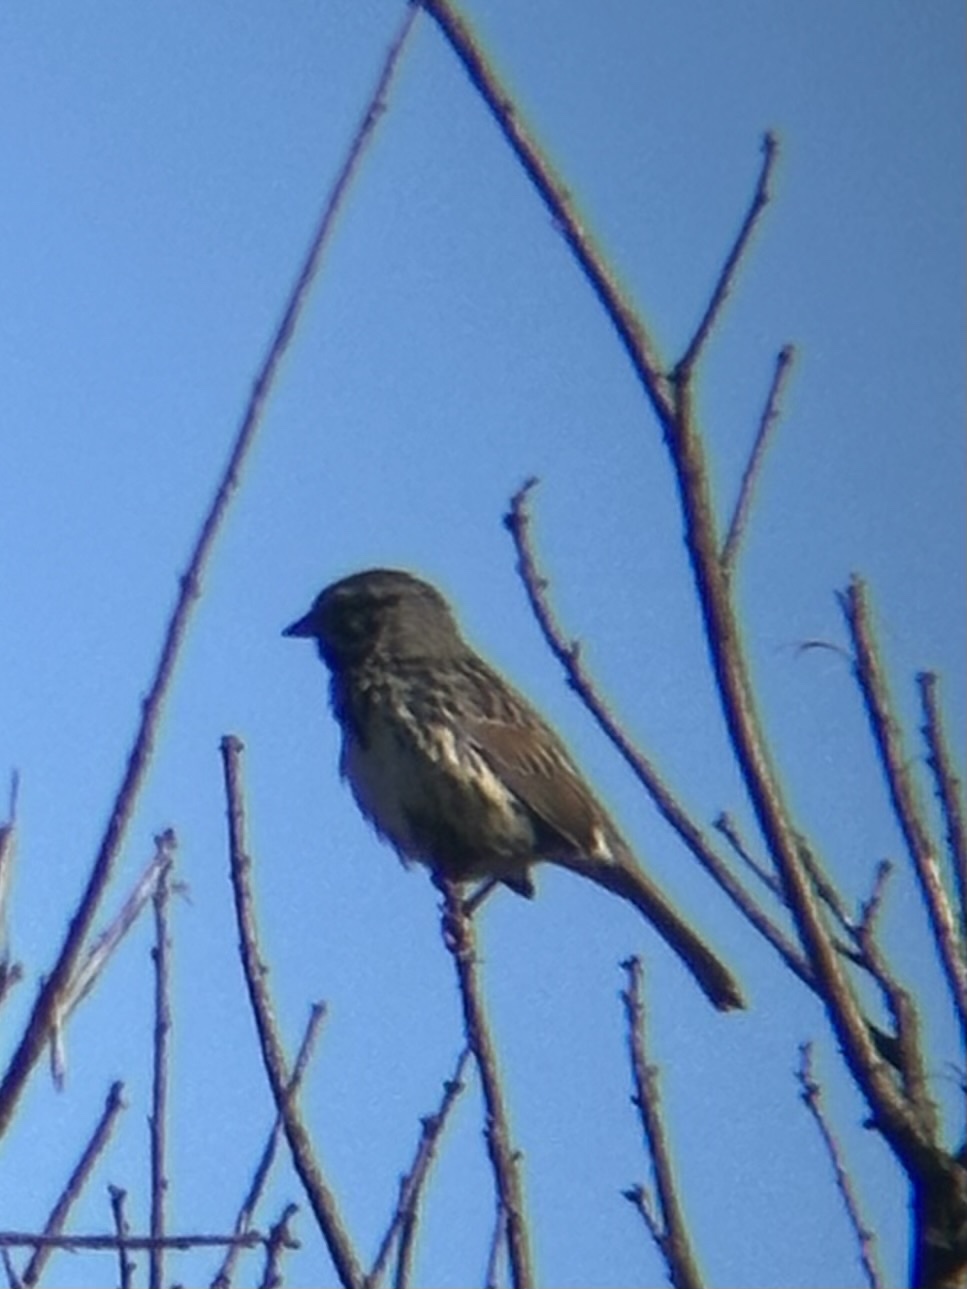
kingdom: Animalia
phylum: Chordata
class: Aves
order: Passeriformes
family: Passerellidae
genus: Melospiza
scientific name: Melospiza melodia
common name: Song sparrow
